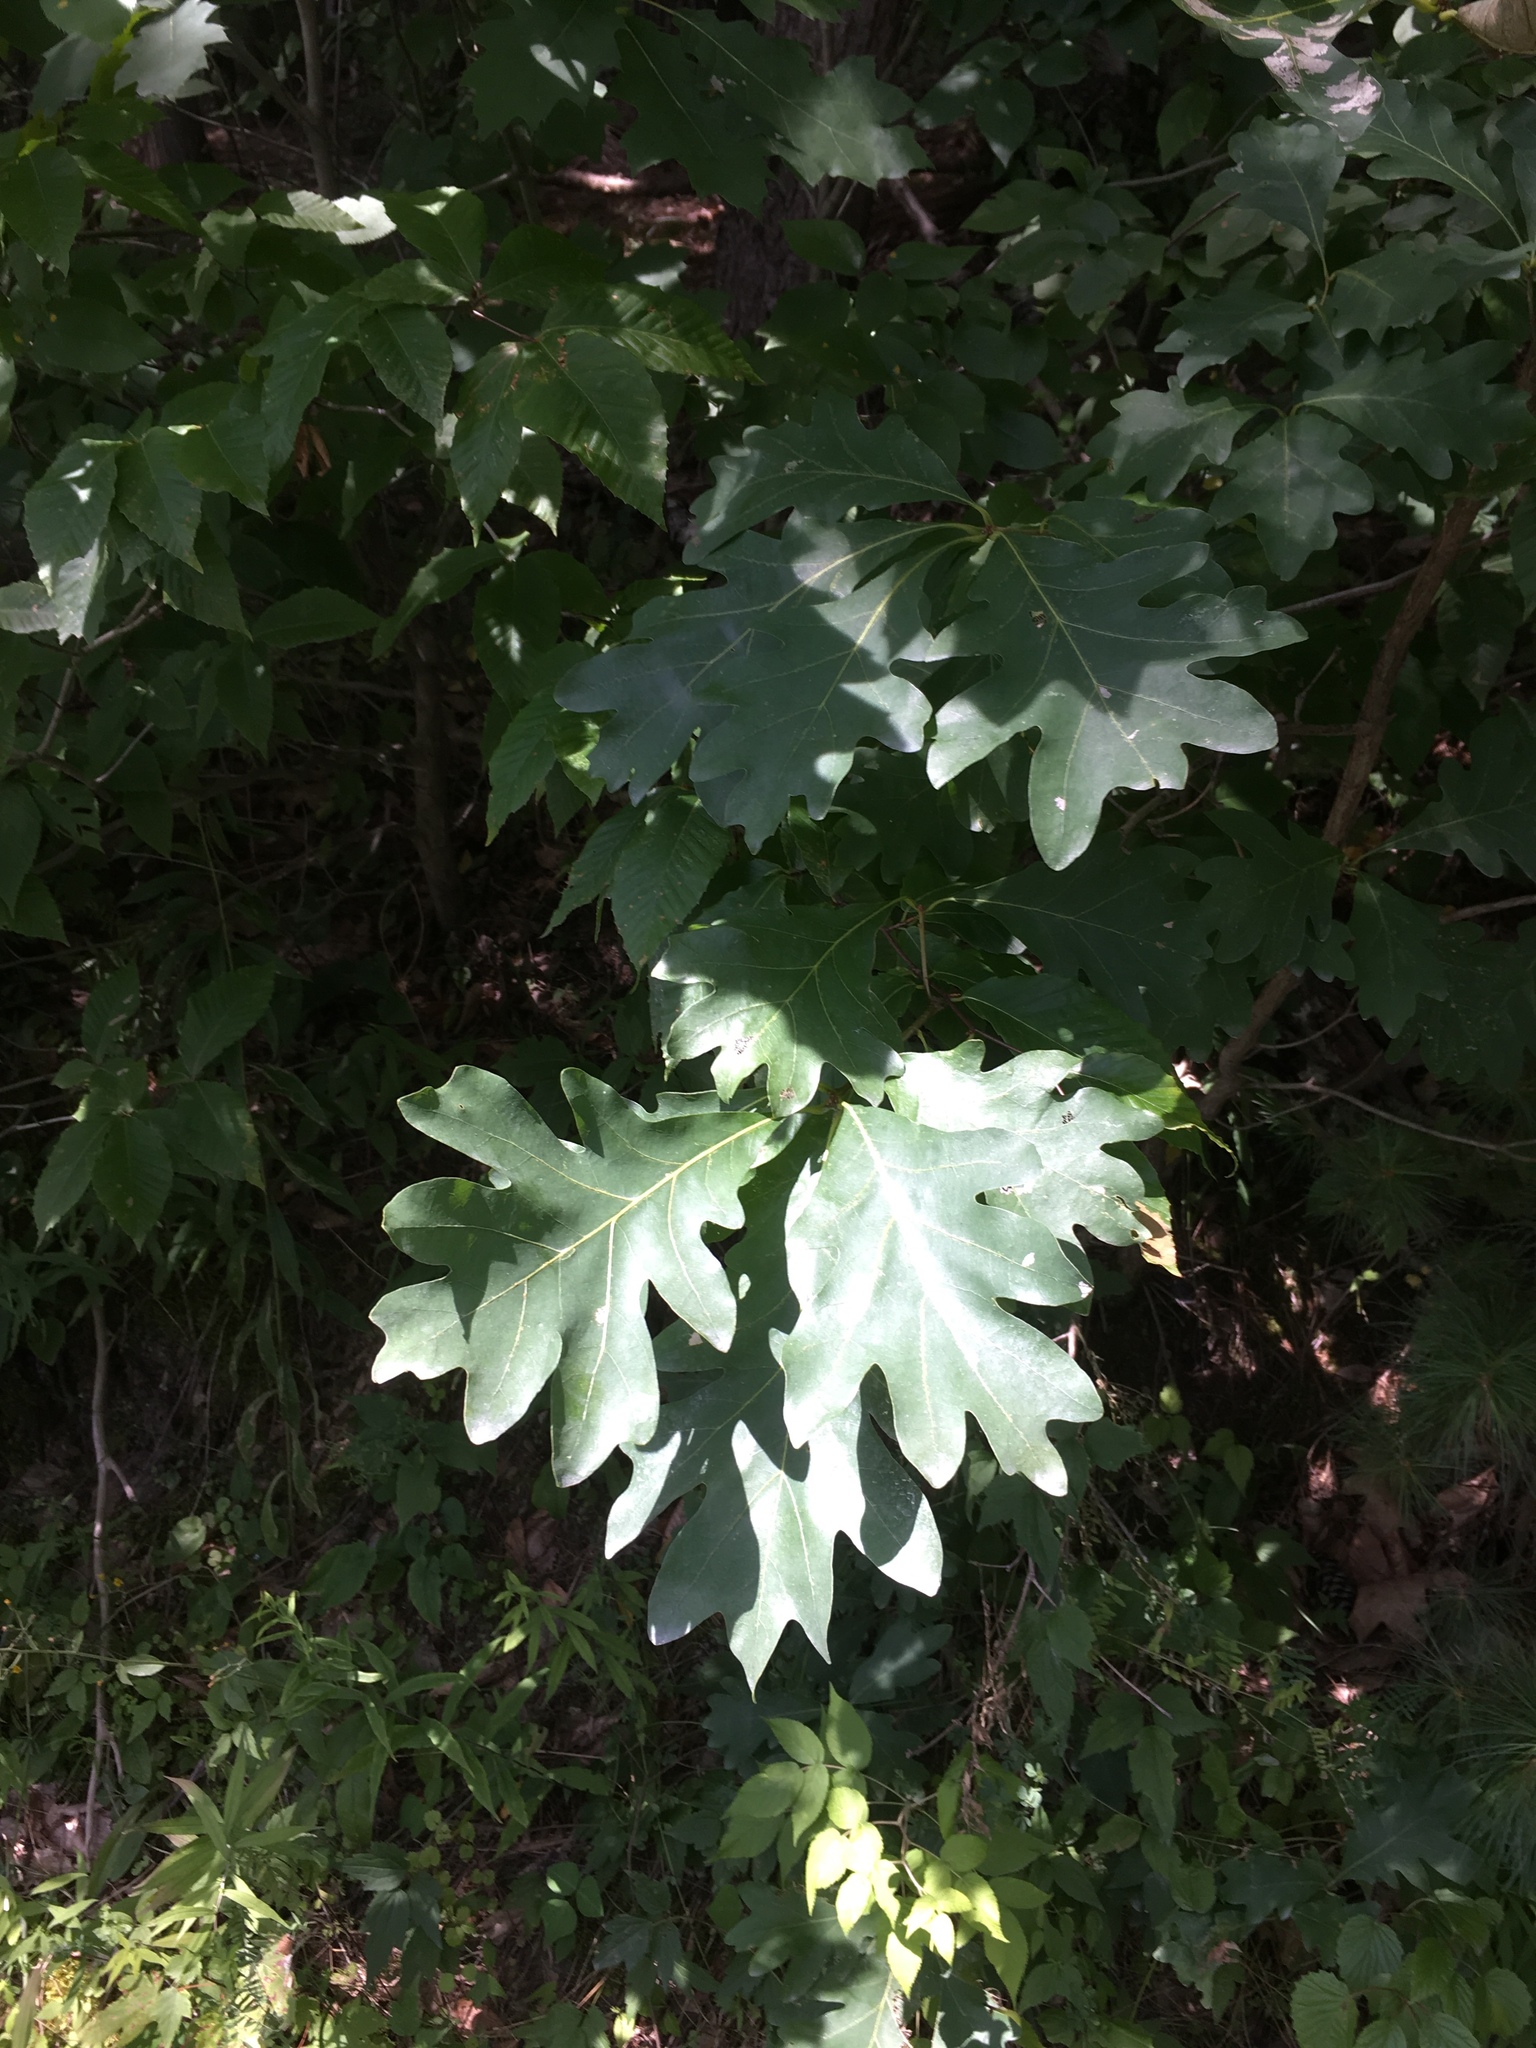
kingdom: Plantae
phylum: Tracheophyta
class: Magnoliopsida
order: Fagales
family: Fagaceae
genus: Quercus
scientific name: Quercus alba
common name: White oak
